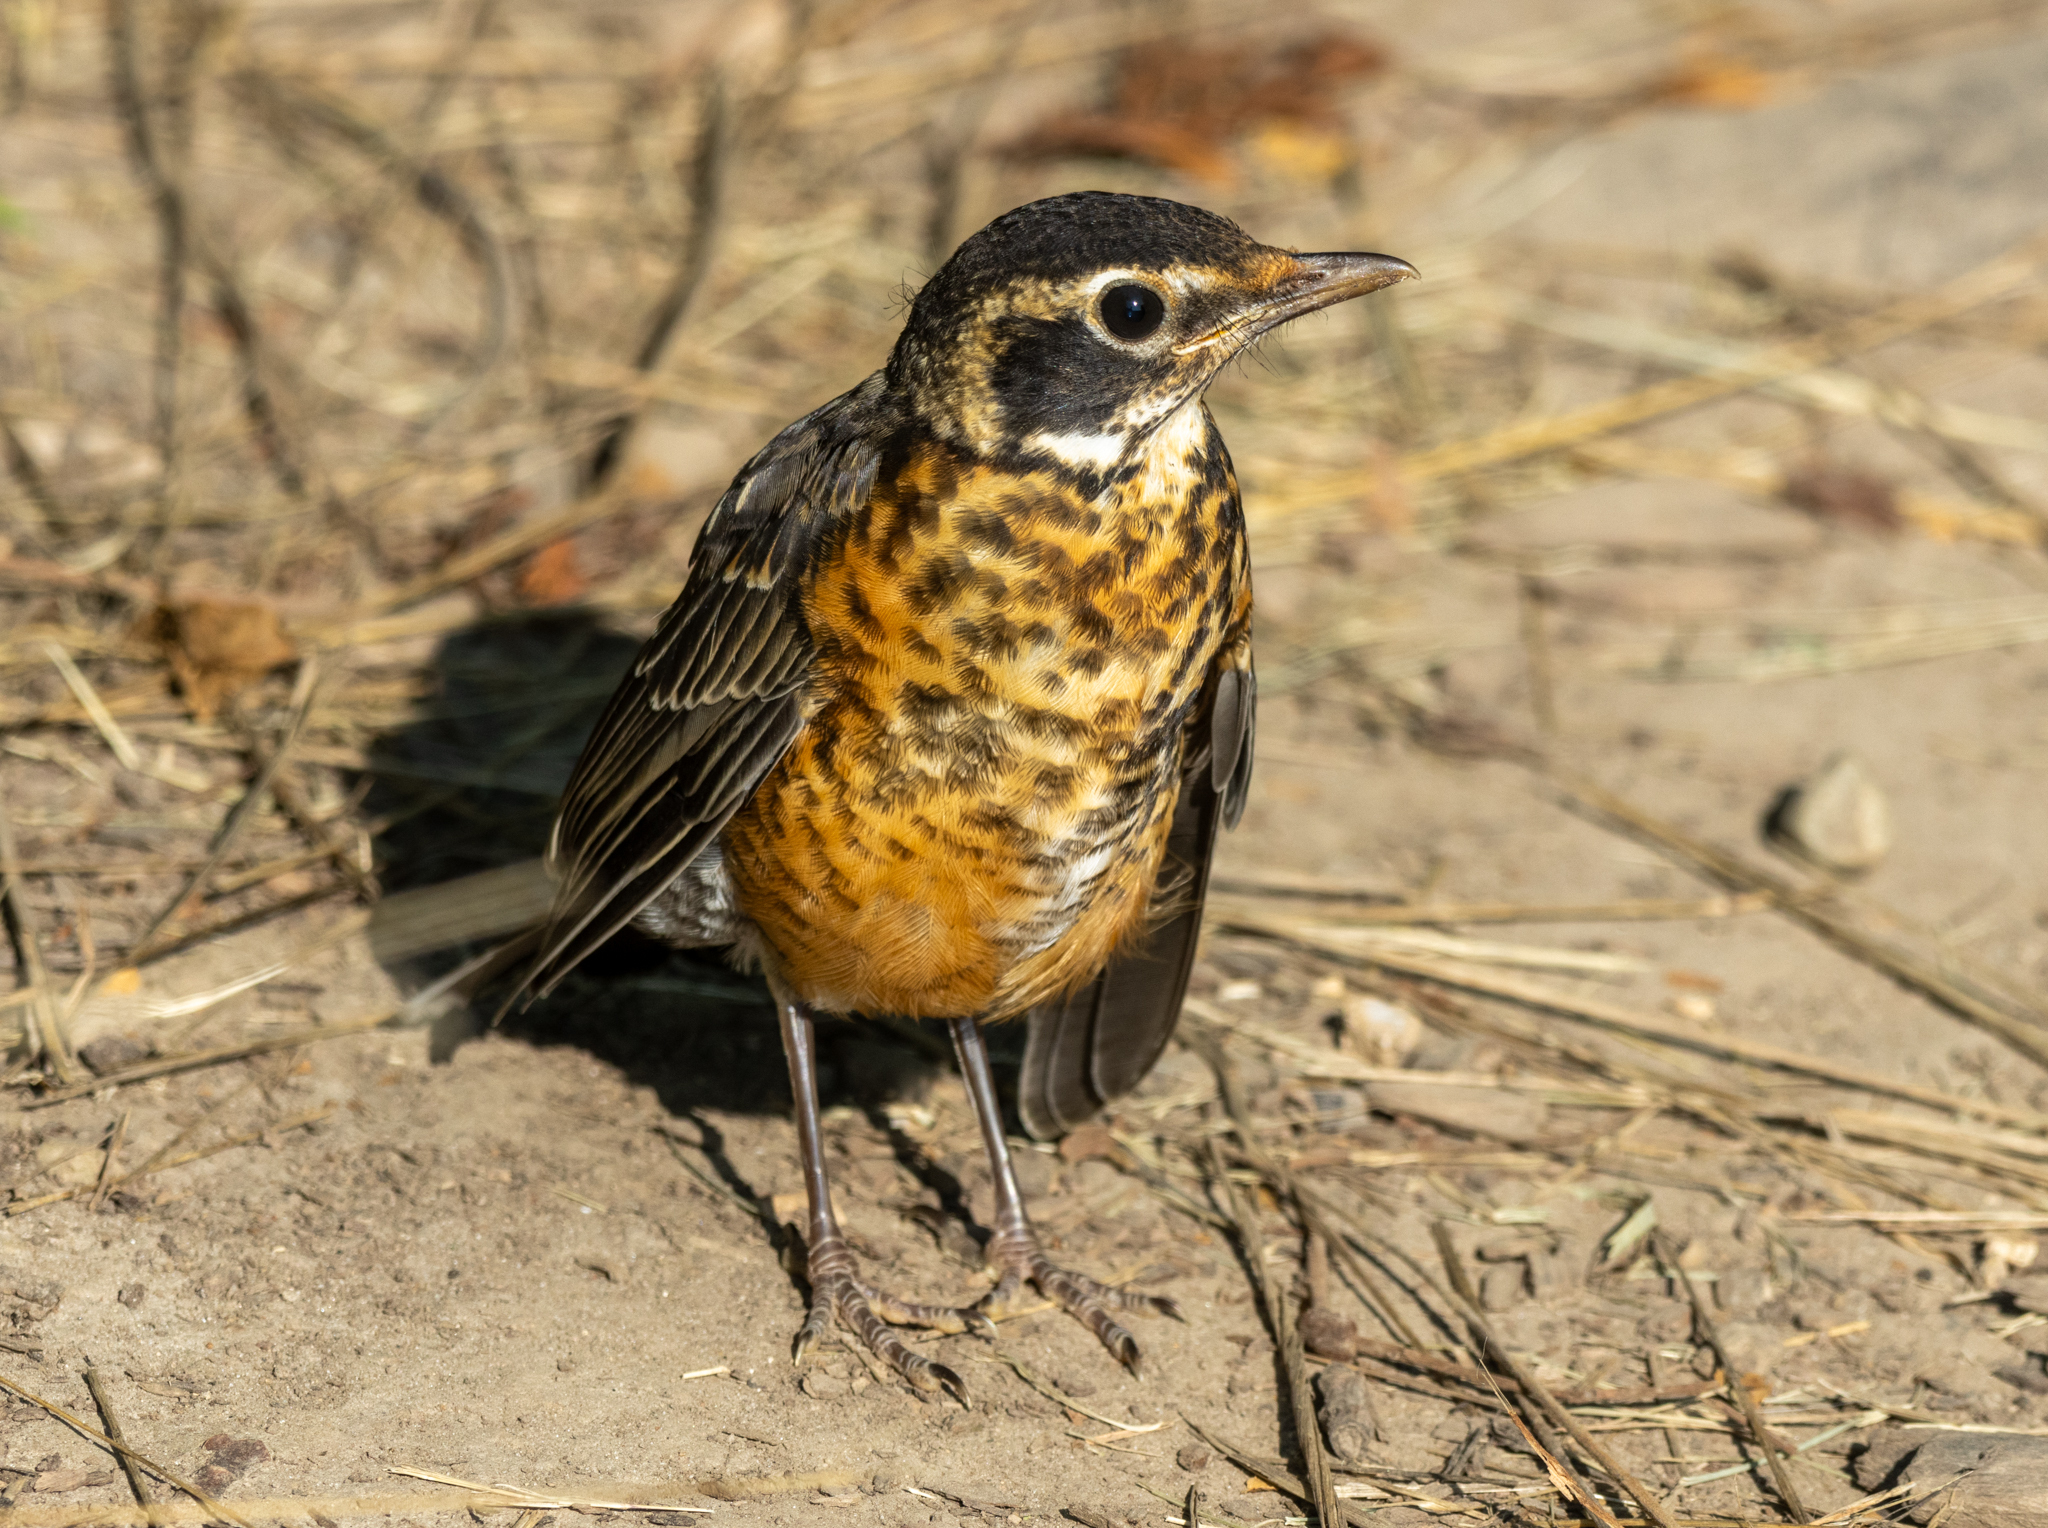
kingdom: Animalia
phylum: Chordata
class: Aves
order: Passeriformes
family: Turdidae
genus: Turdus
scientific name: Turdus migratorius
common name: American robin
